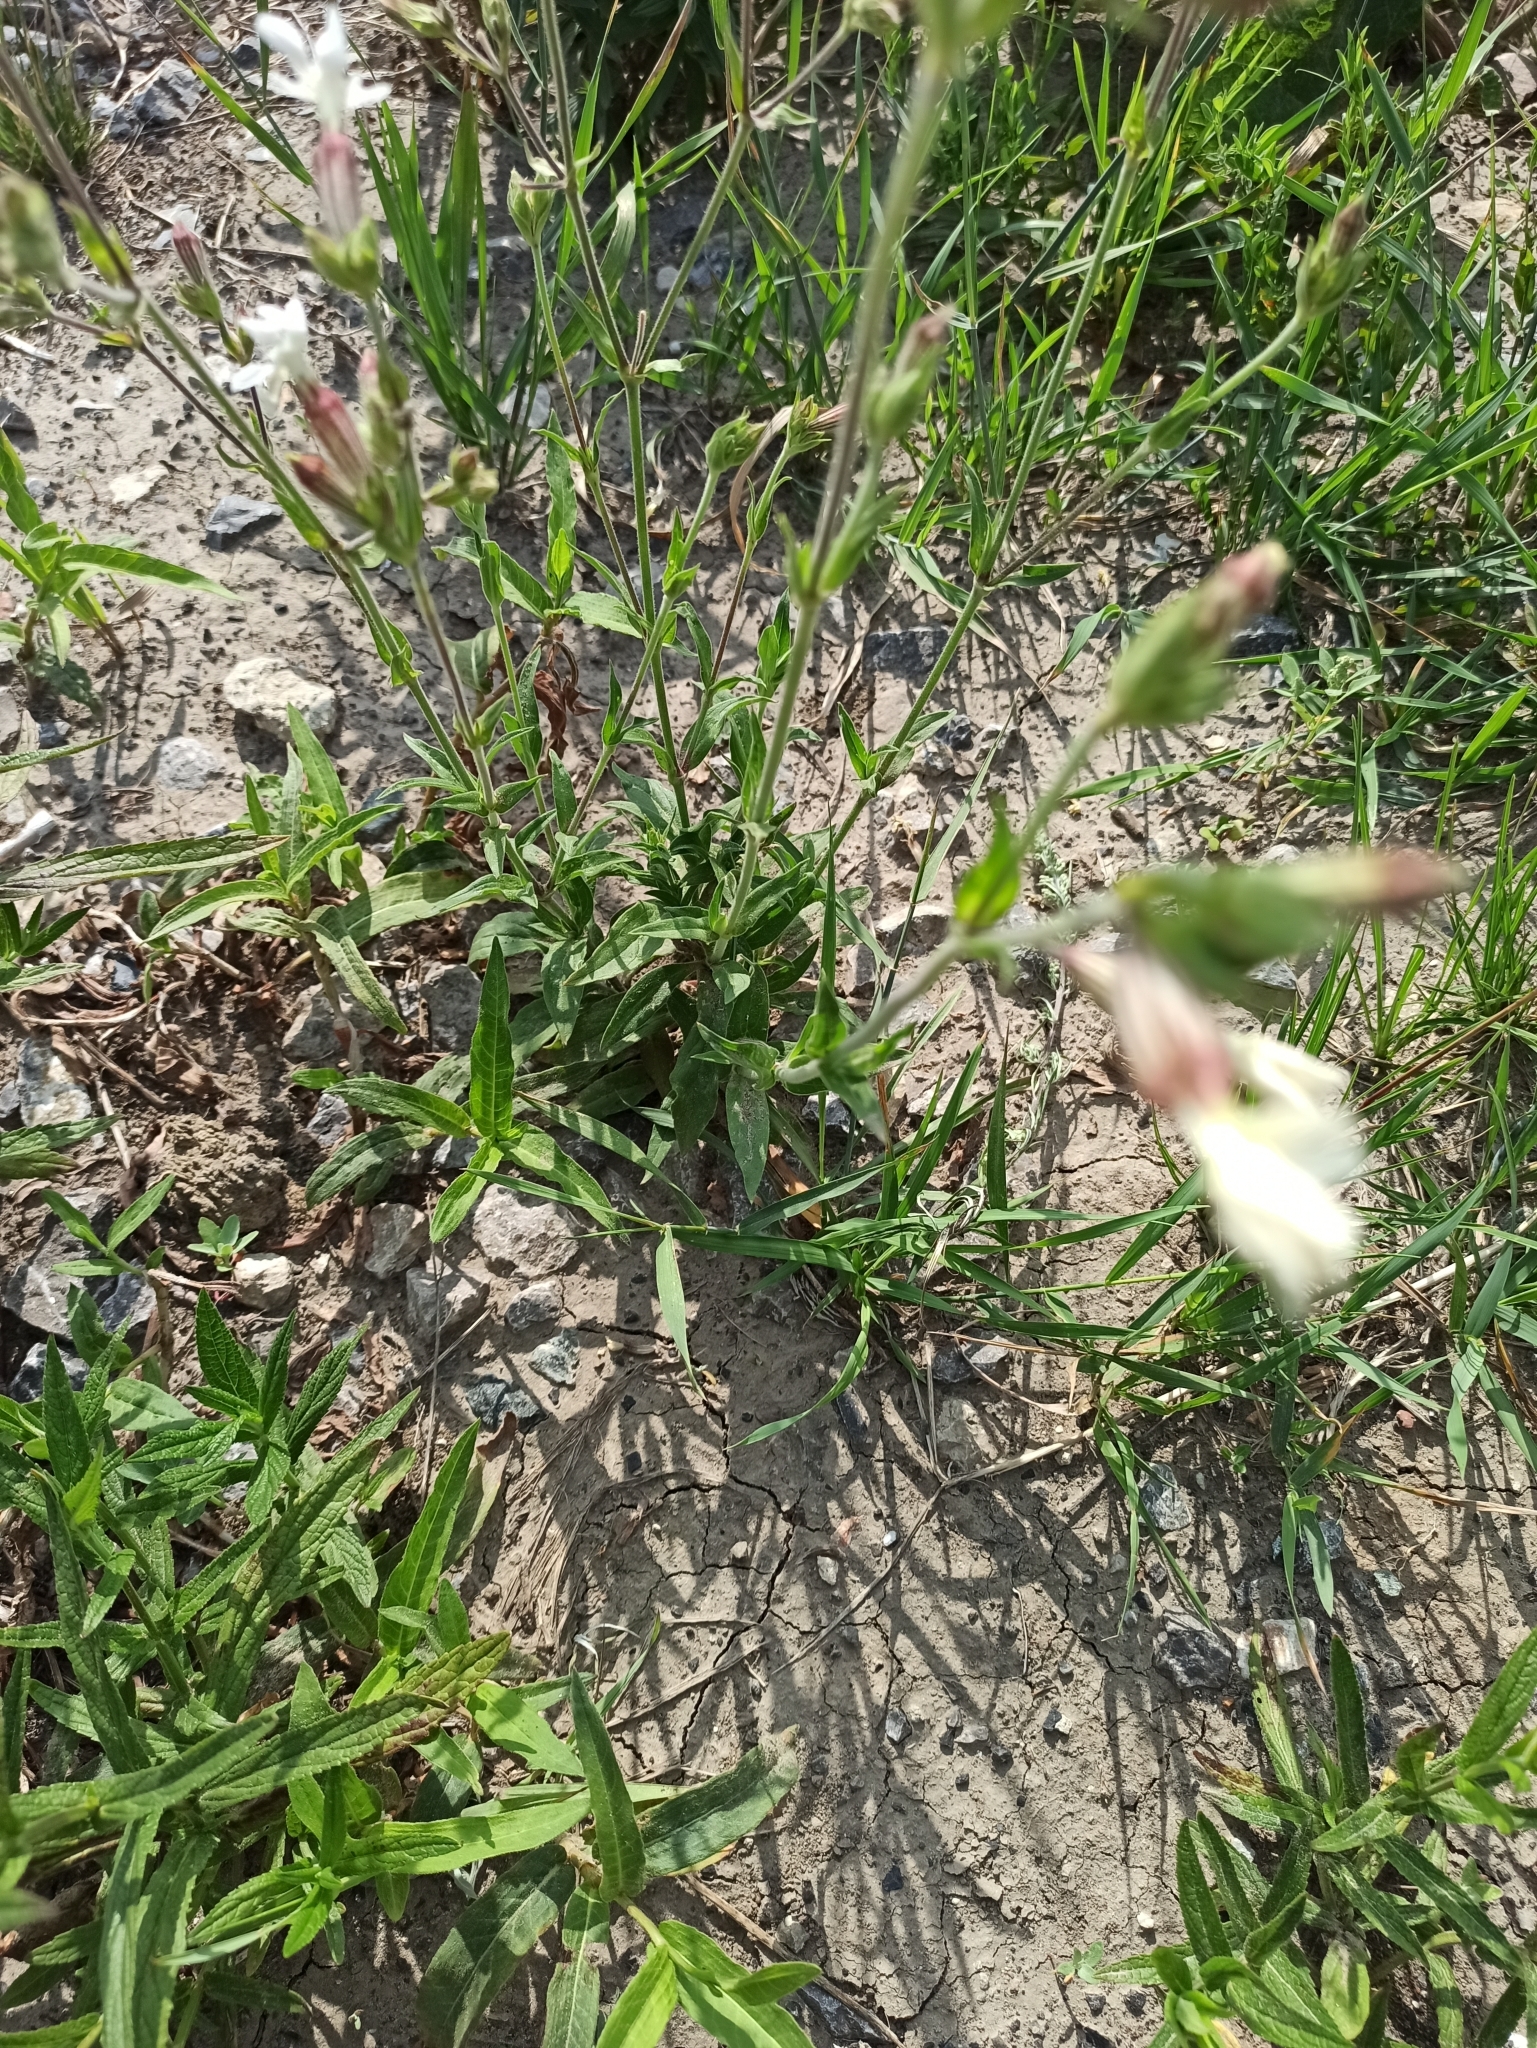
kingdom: Plantae
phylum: Tracheophyta
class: Magnoliopsida
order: Caryophyllales
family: Caryophyllaceae
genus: Silene
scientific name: Silene latifolia
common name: White campion
